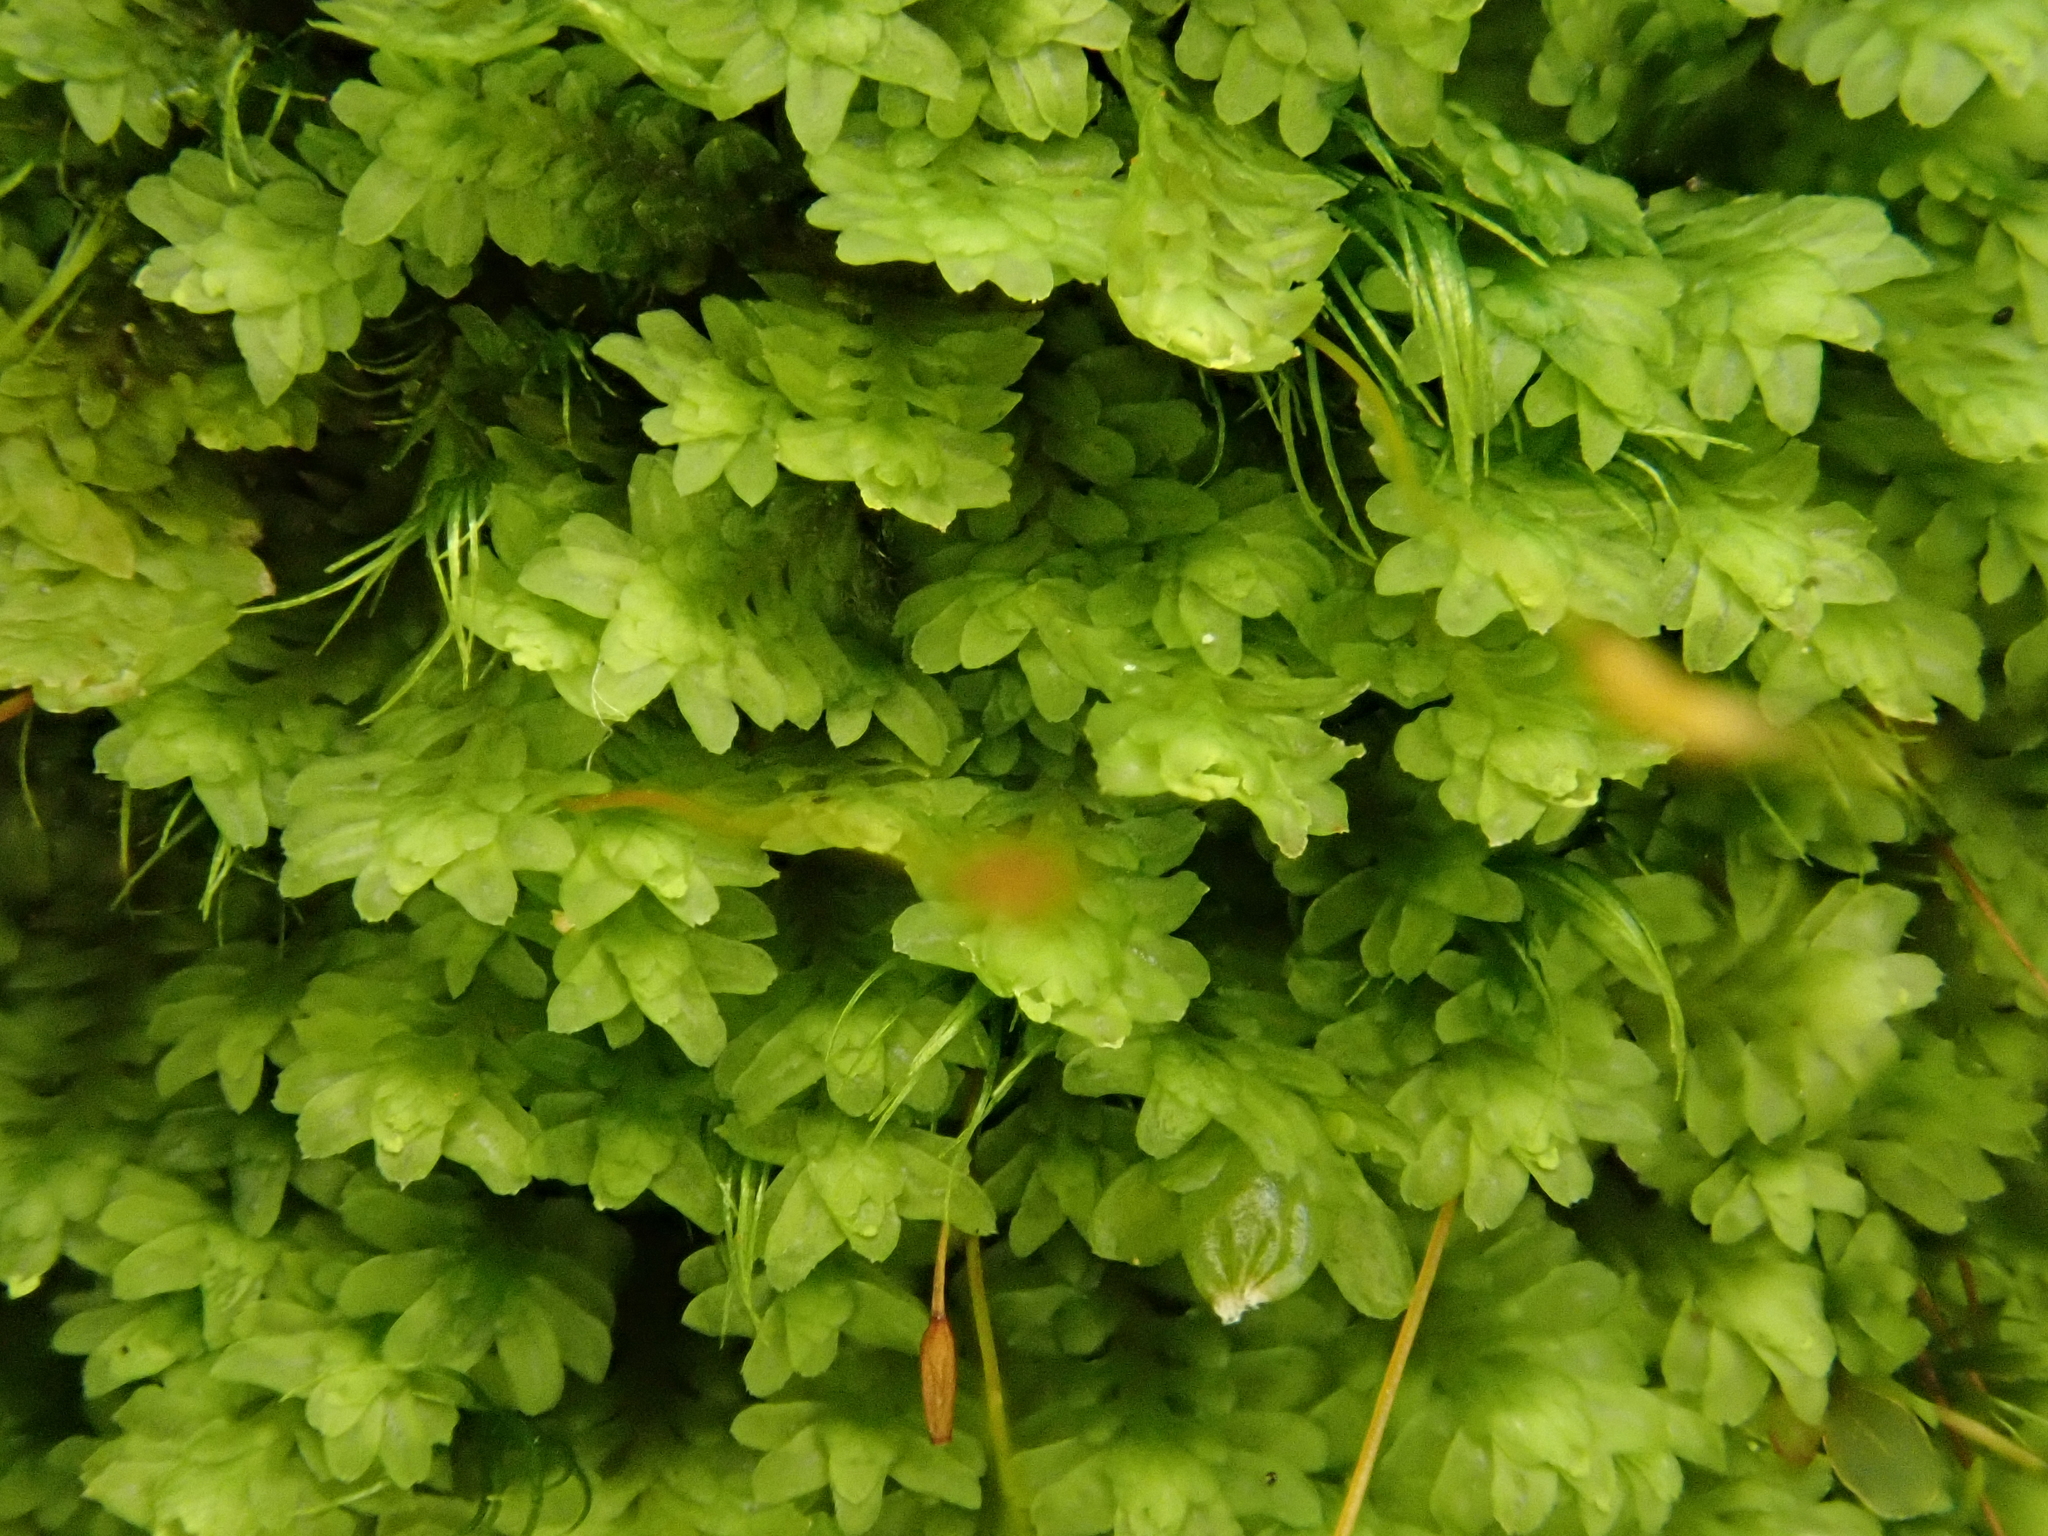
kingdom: Plantae
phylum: Marchantiophyta
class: Jungermanniopsida
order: Jungermanniales
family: Scapaniaceae
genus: Diplophyllum
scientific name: Diplophyllum albicans
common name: White earwort
